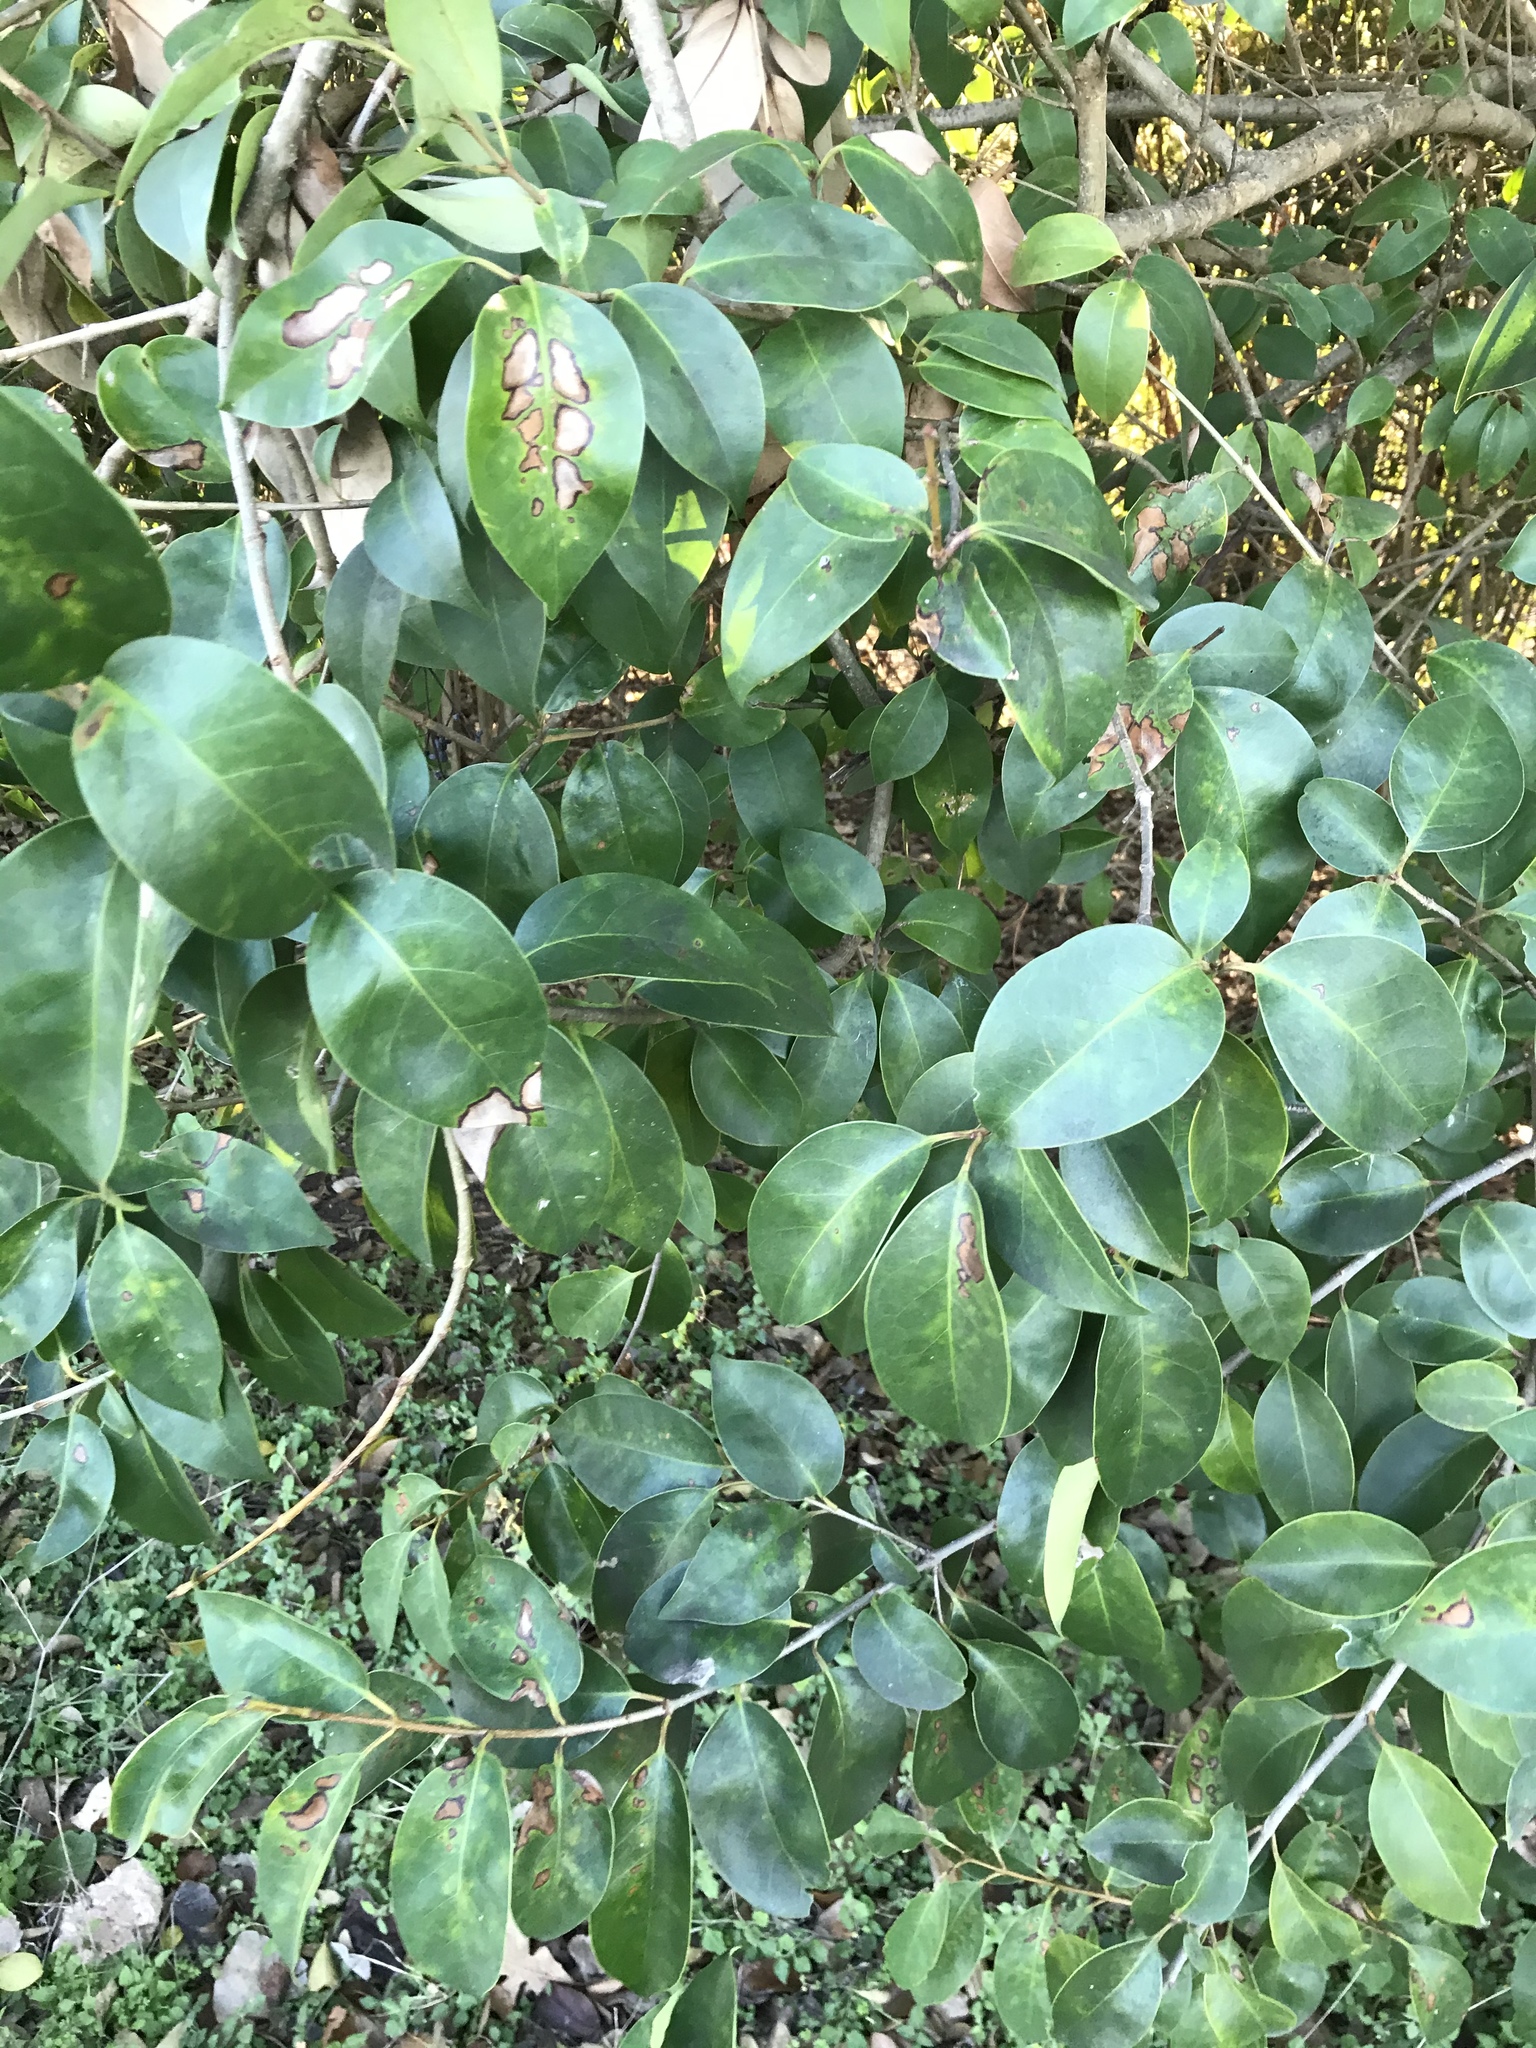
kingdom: Plantae
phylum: Tracheophyta
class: Magnoliopsida
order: Lamiales
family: Oleaceae
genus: Ligustrum
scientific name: Ligustrum lucidum
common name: Glossy privet
